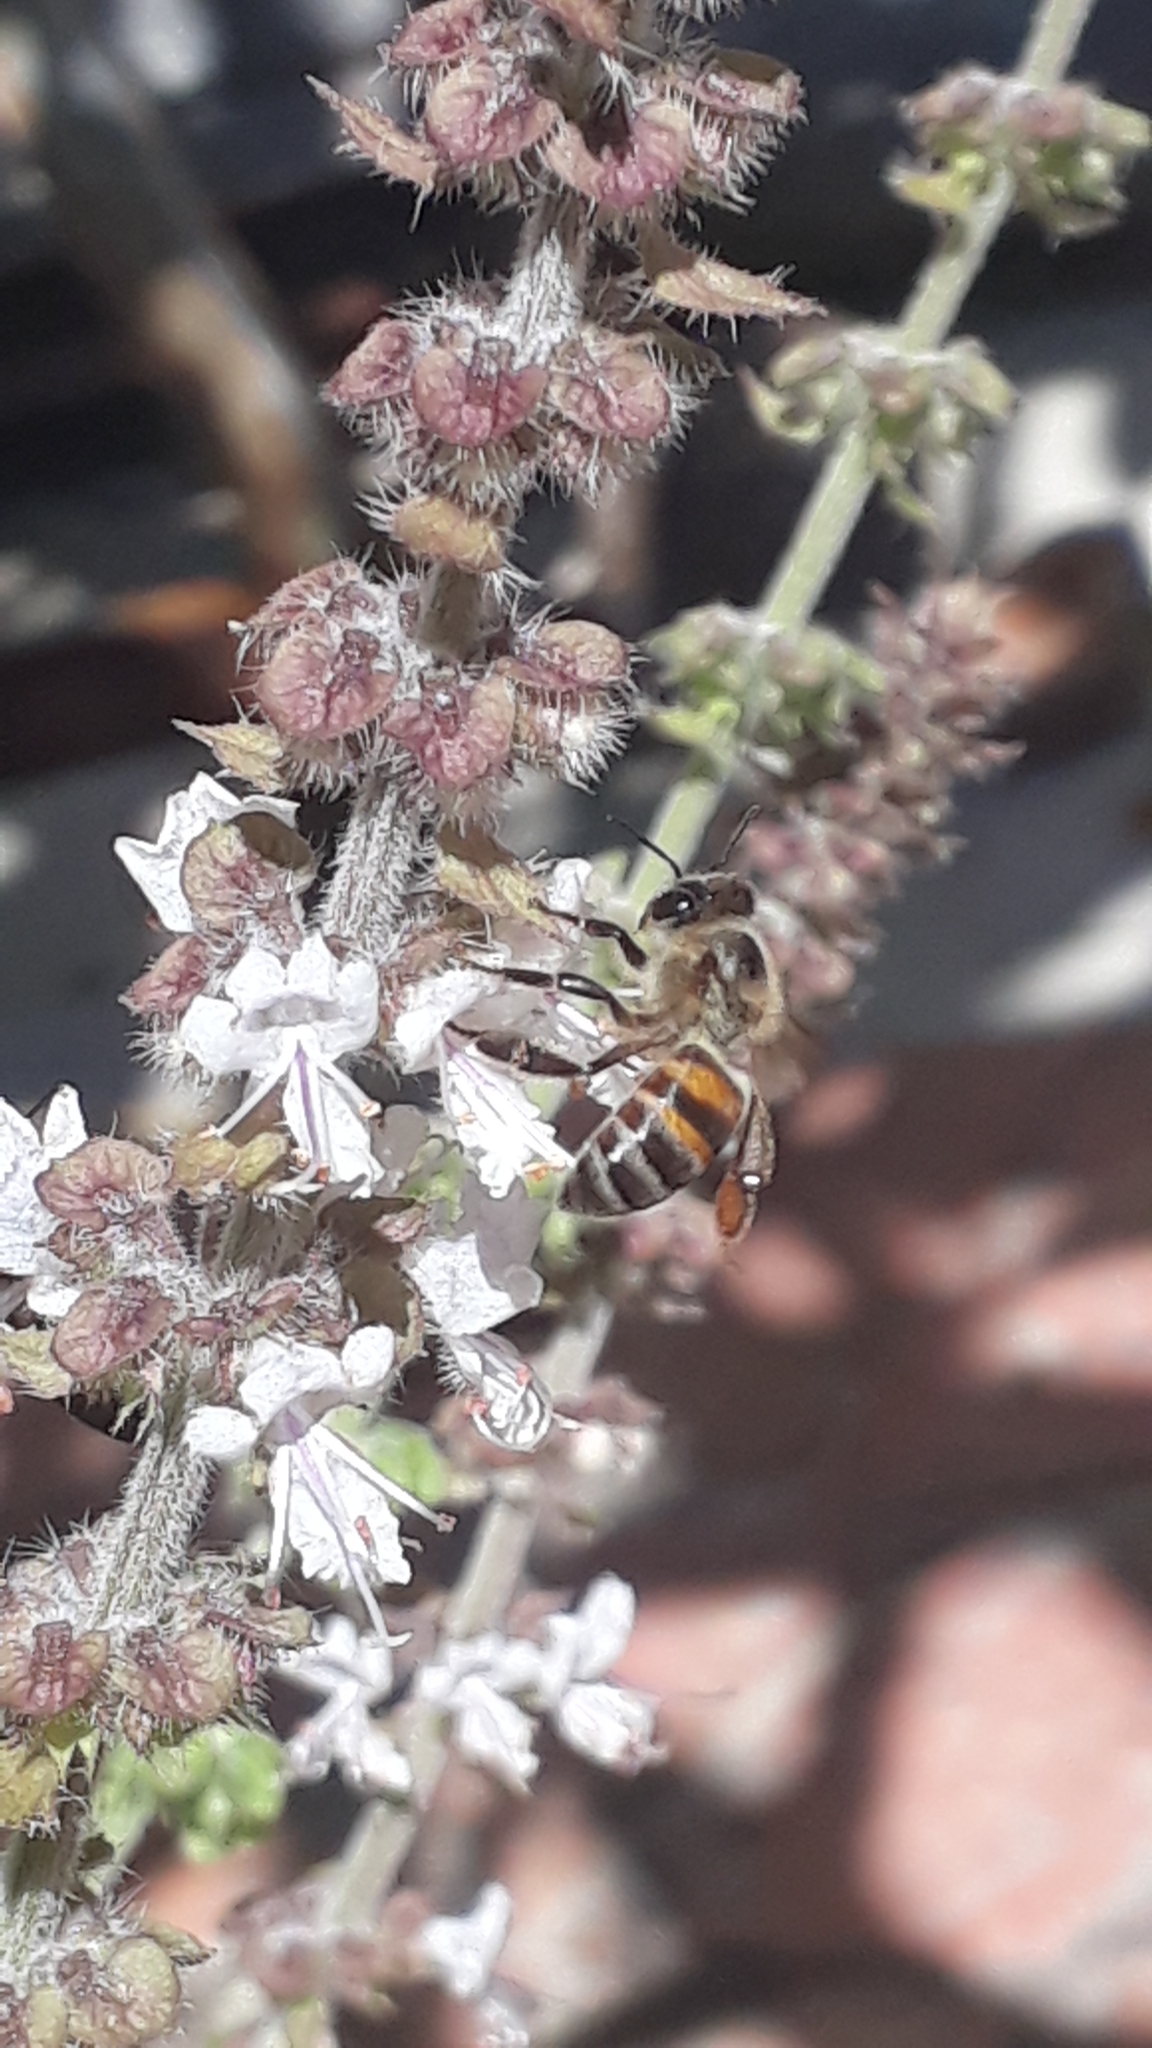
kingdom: Animalia
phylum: Arthropoda
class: Insecta
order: Hymenoptera
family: Apidae
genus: Apis
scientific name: Apis mellifera
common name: Honey bee
